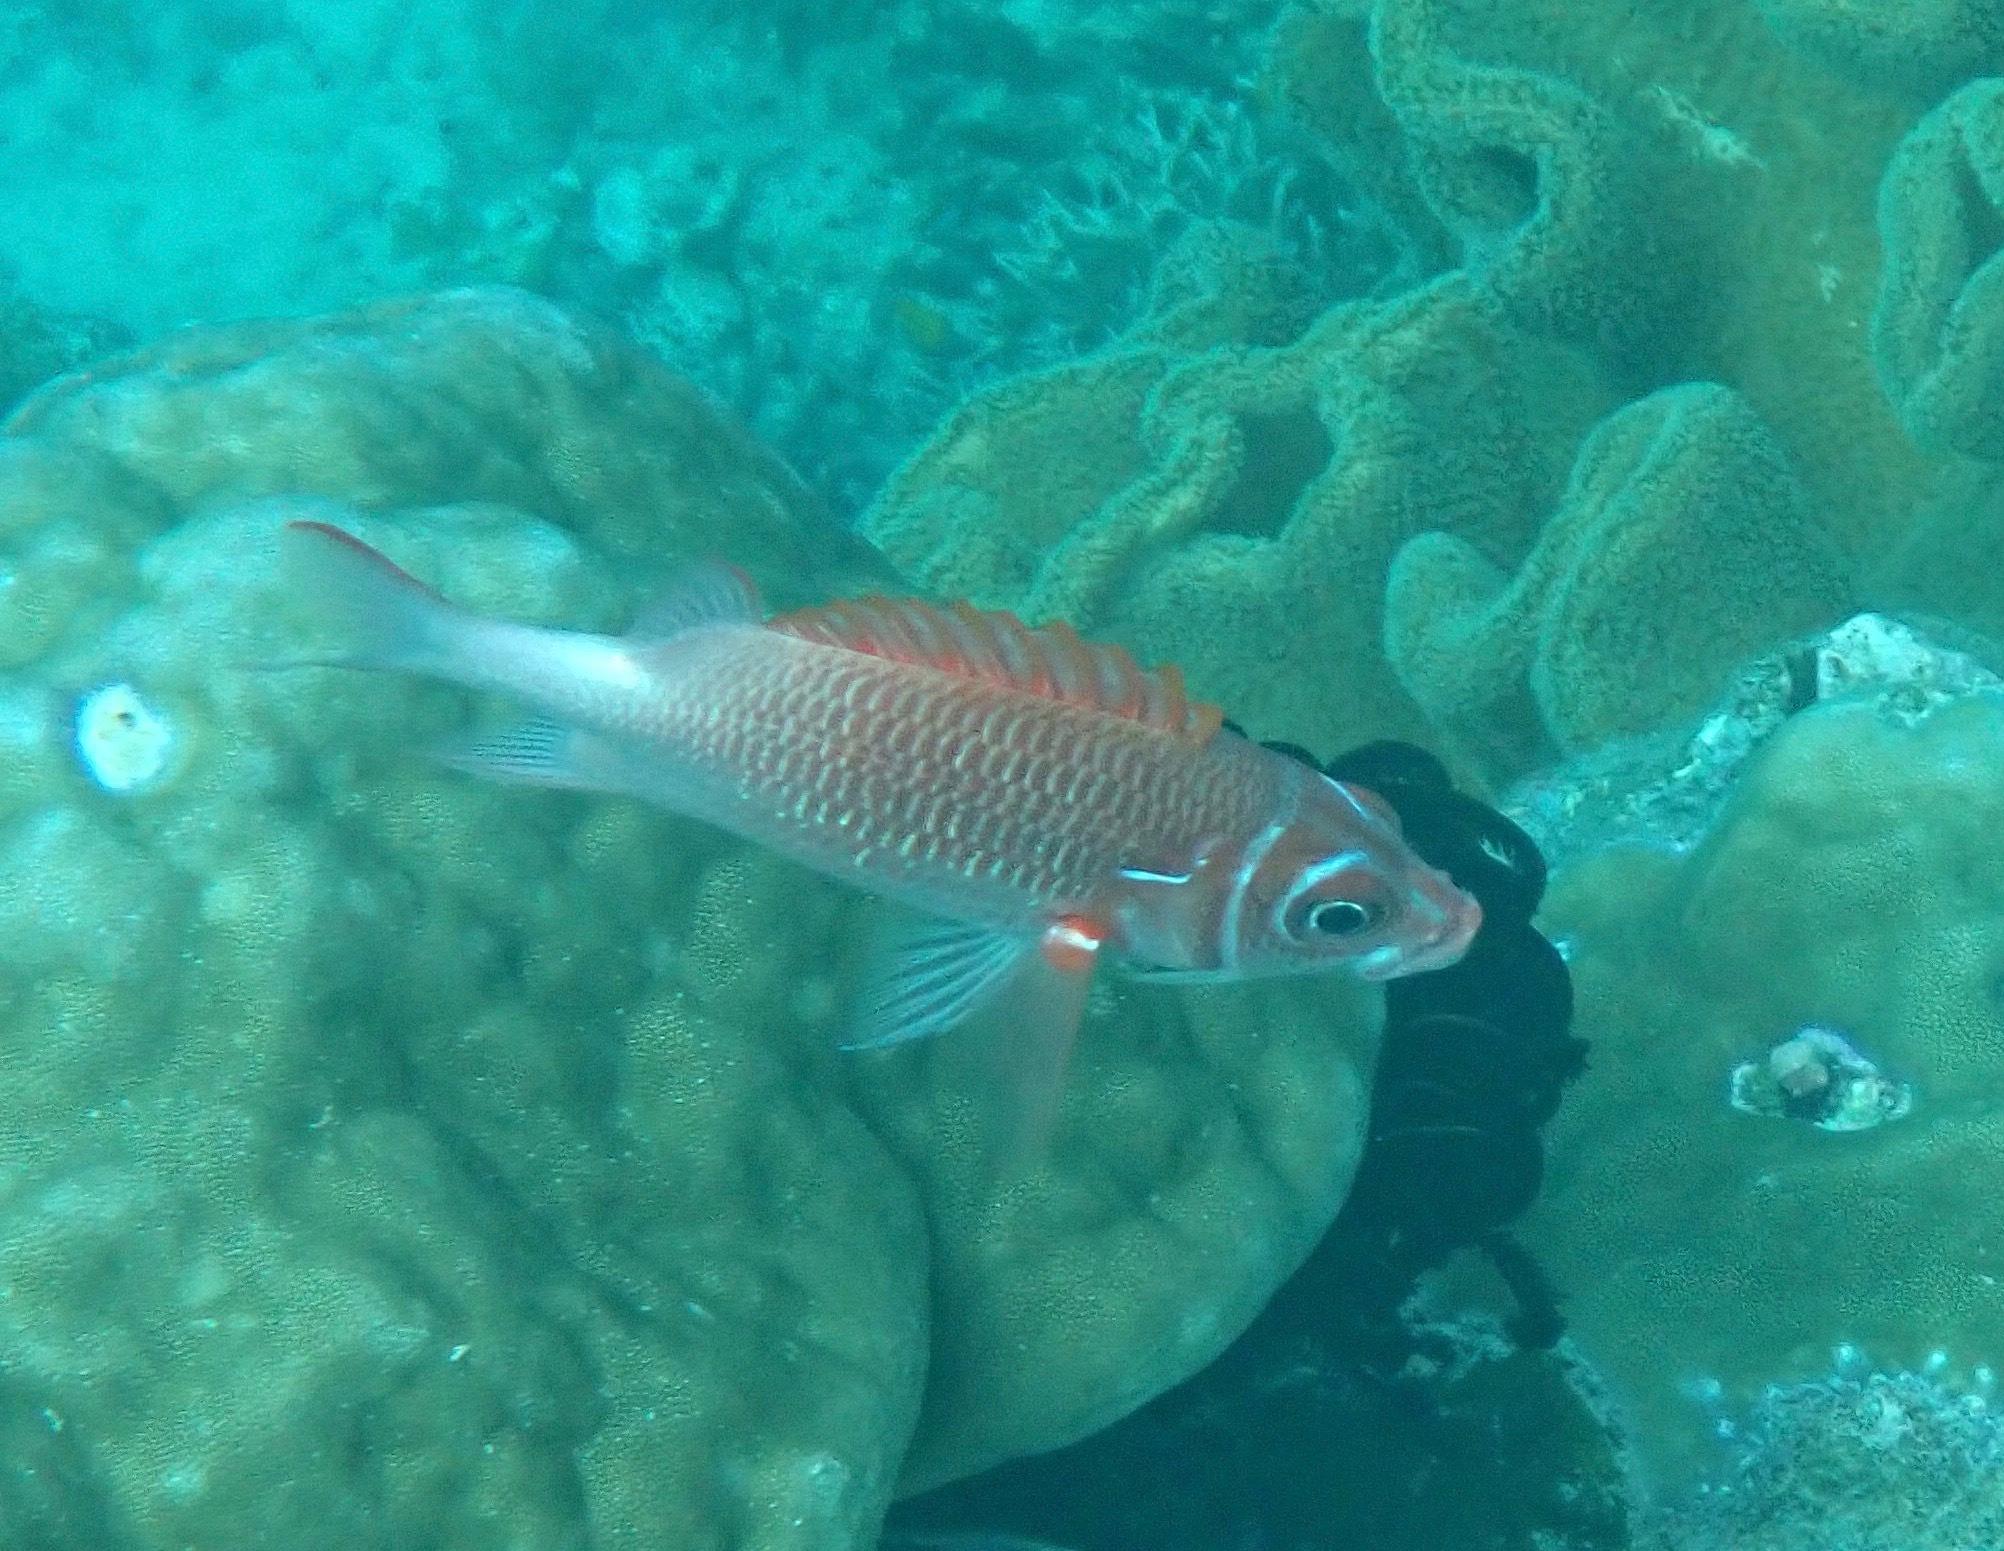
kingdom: Animalia
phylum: Chordata
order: Beryciformes
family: Holocentridae
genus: Sargocentron
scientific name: Sargocentron caudimaculatum
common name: Fanfin soldier
